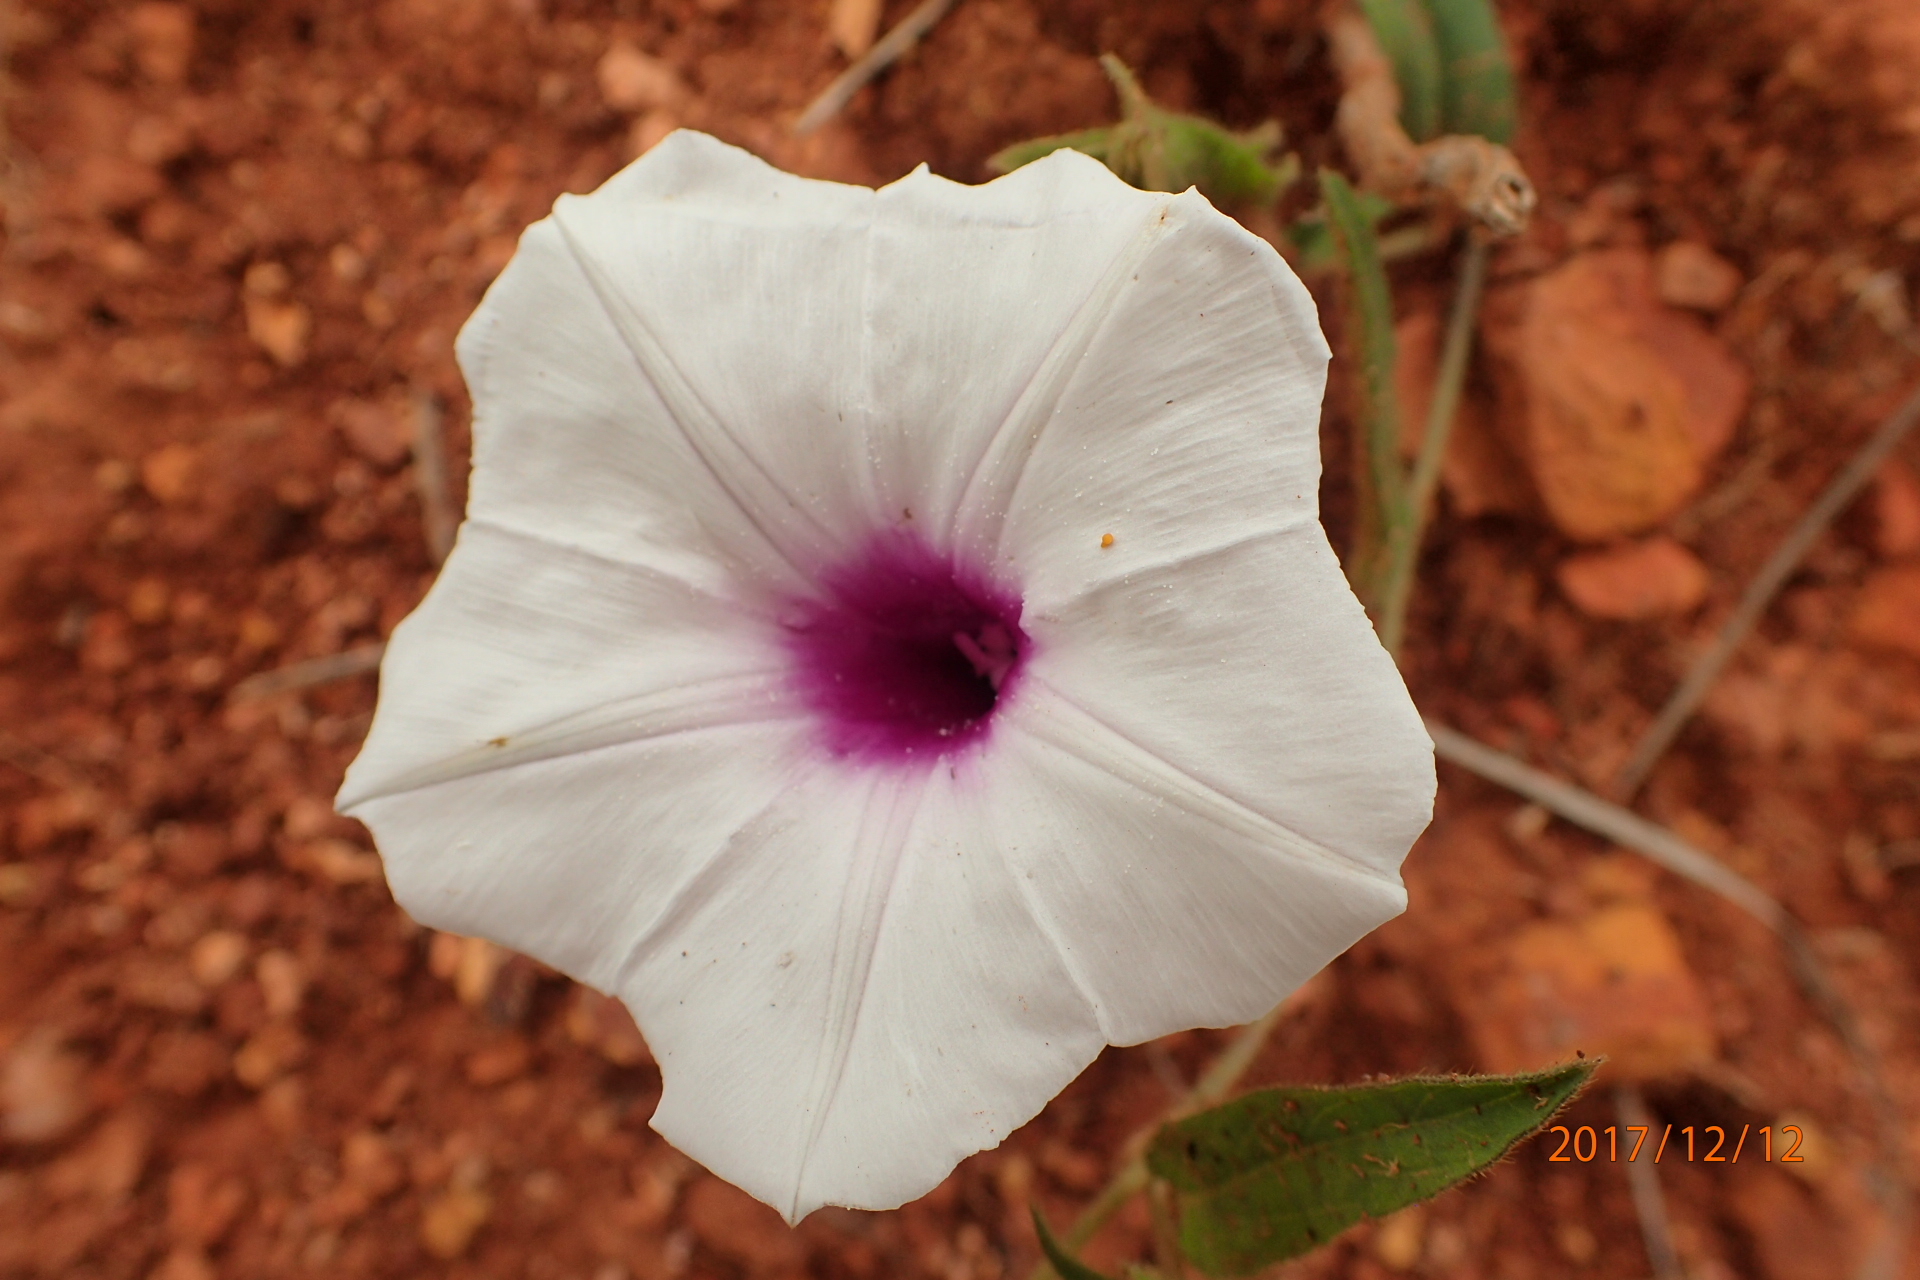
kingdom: Plantae
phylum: Tracheophyta
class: Magnoliopsida
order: Solanales
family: Convolvulaceae
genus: Ipomoea
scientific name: Ipomoea crassipes
